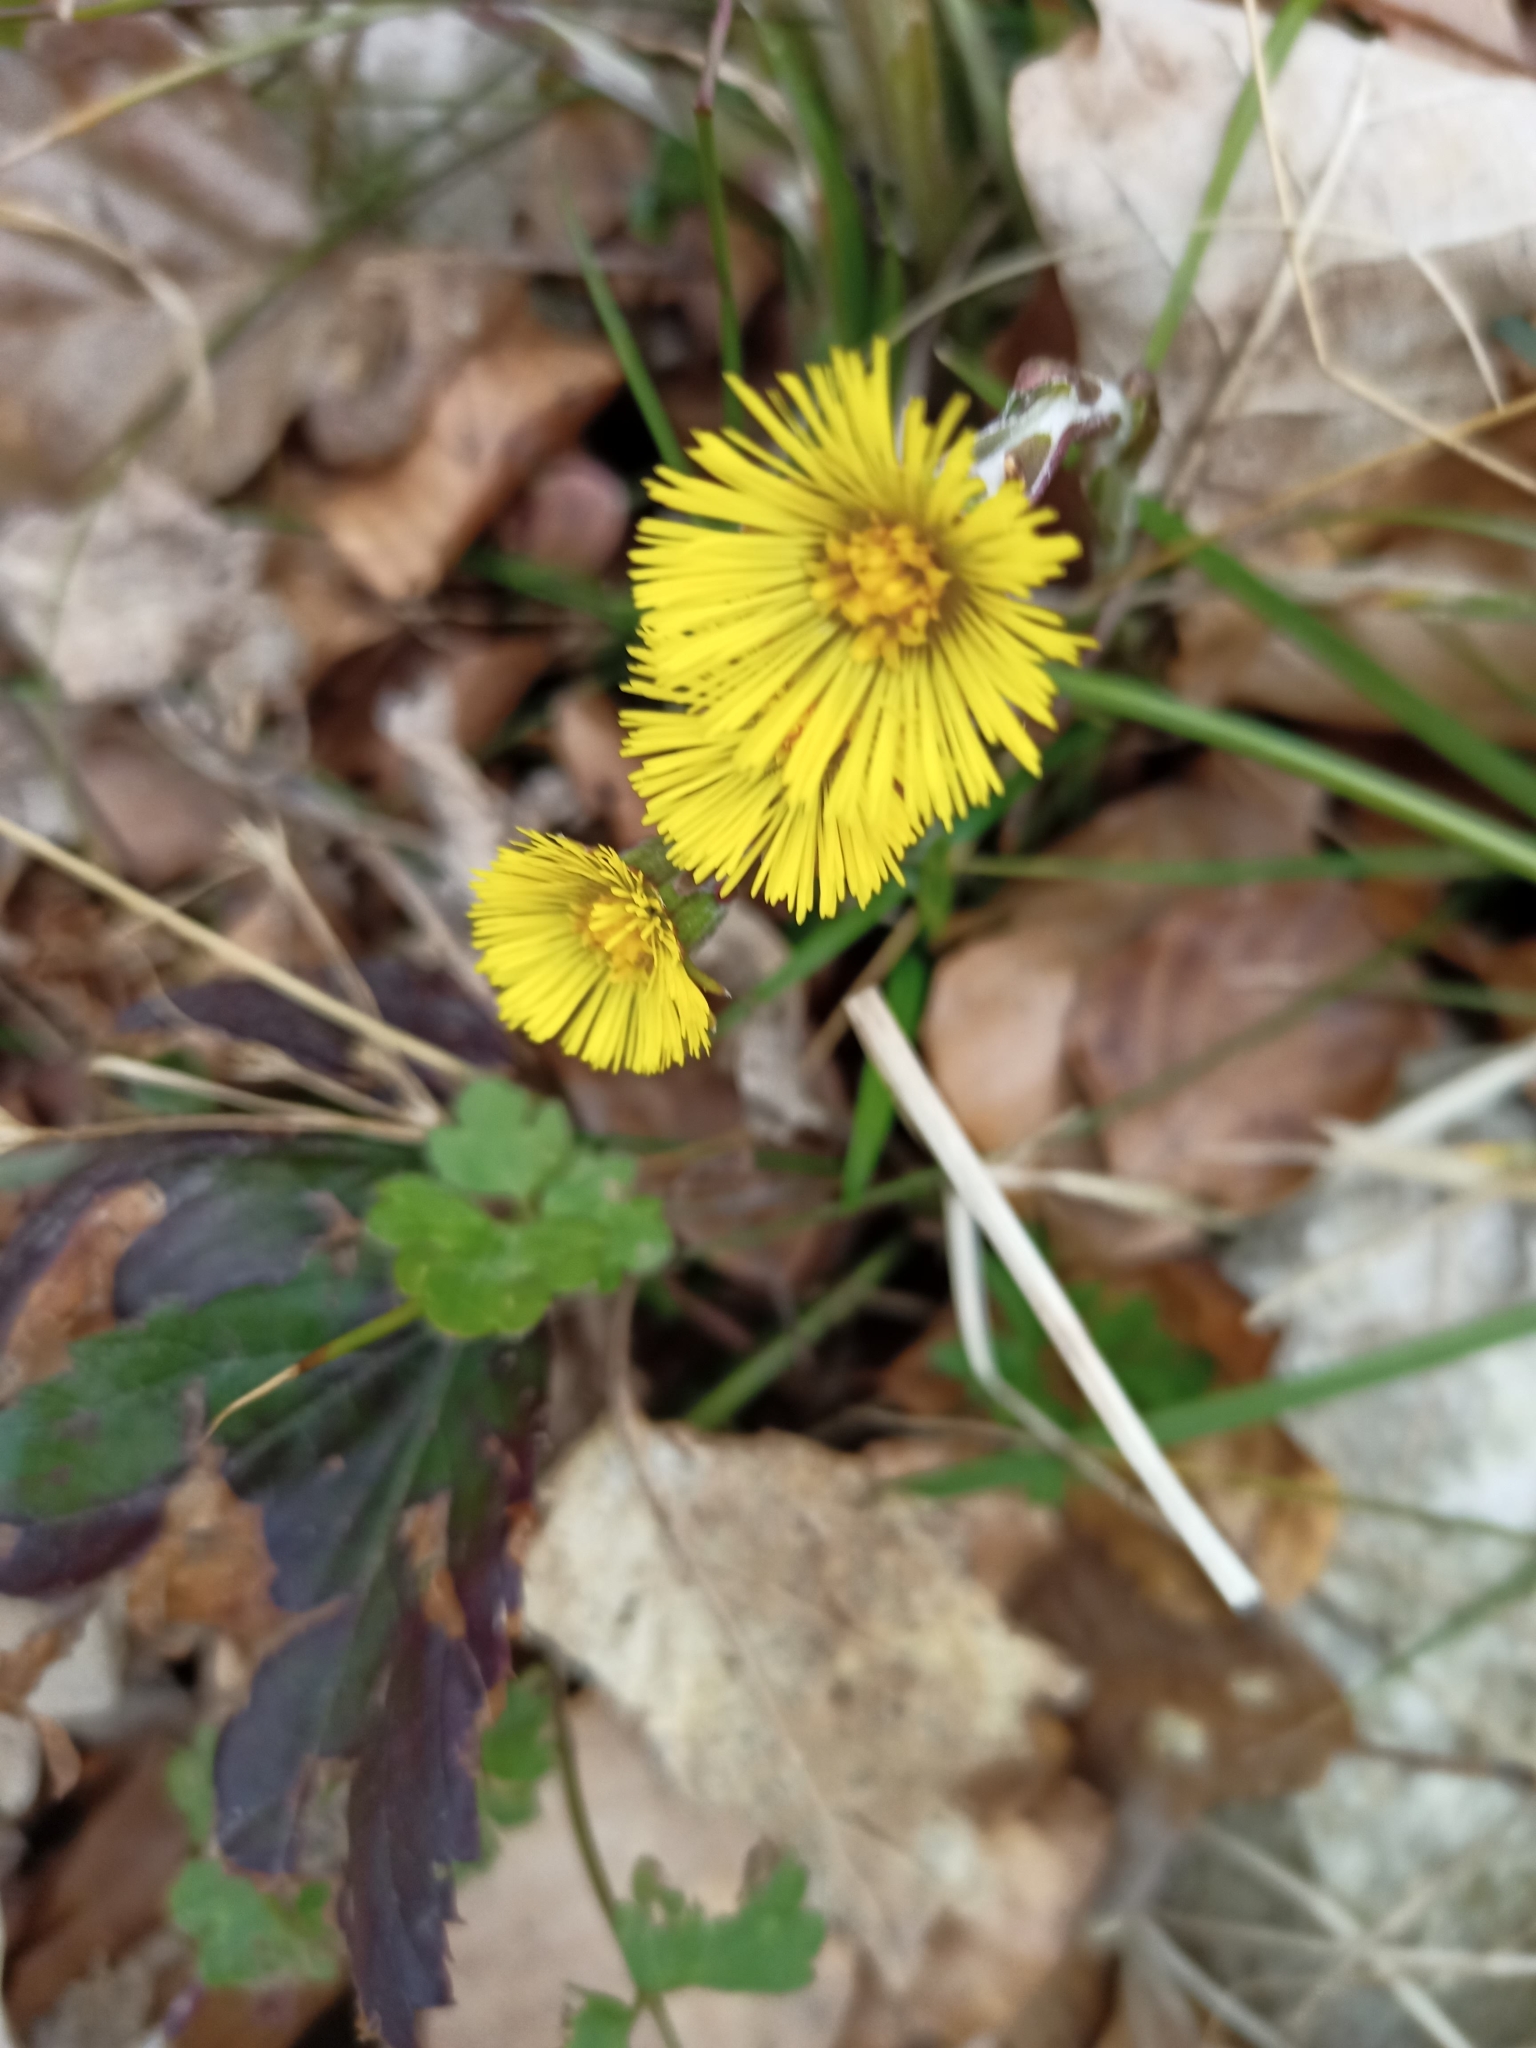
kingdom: Plantae
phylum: Tracheophyta
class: Magnoliopsida
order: Asterales
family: Asteraceae
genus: Tussilago
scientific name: Tussilago farfara
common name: Coltsfoot
